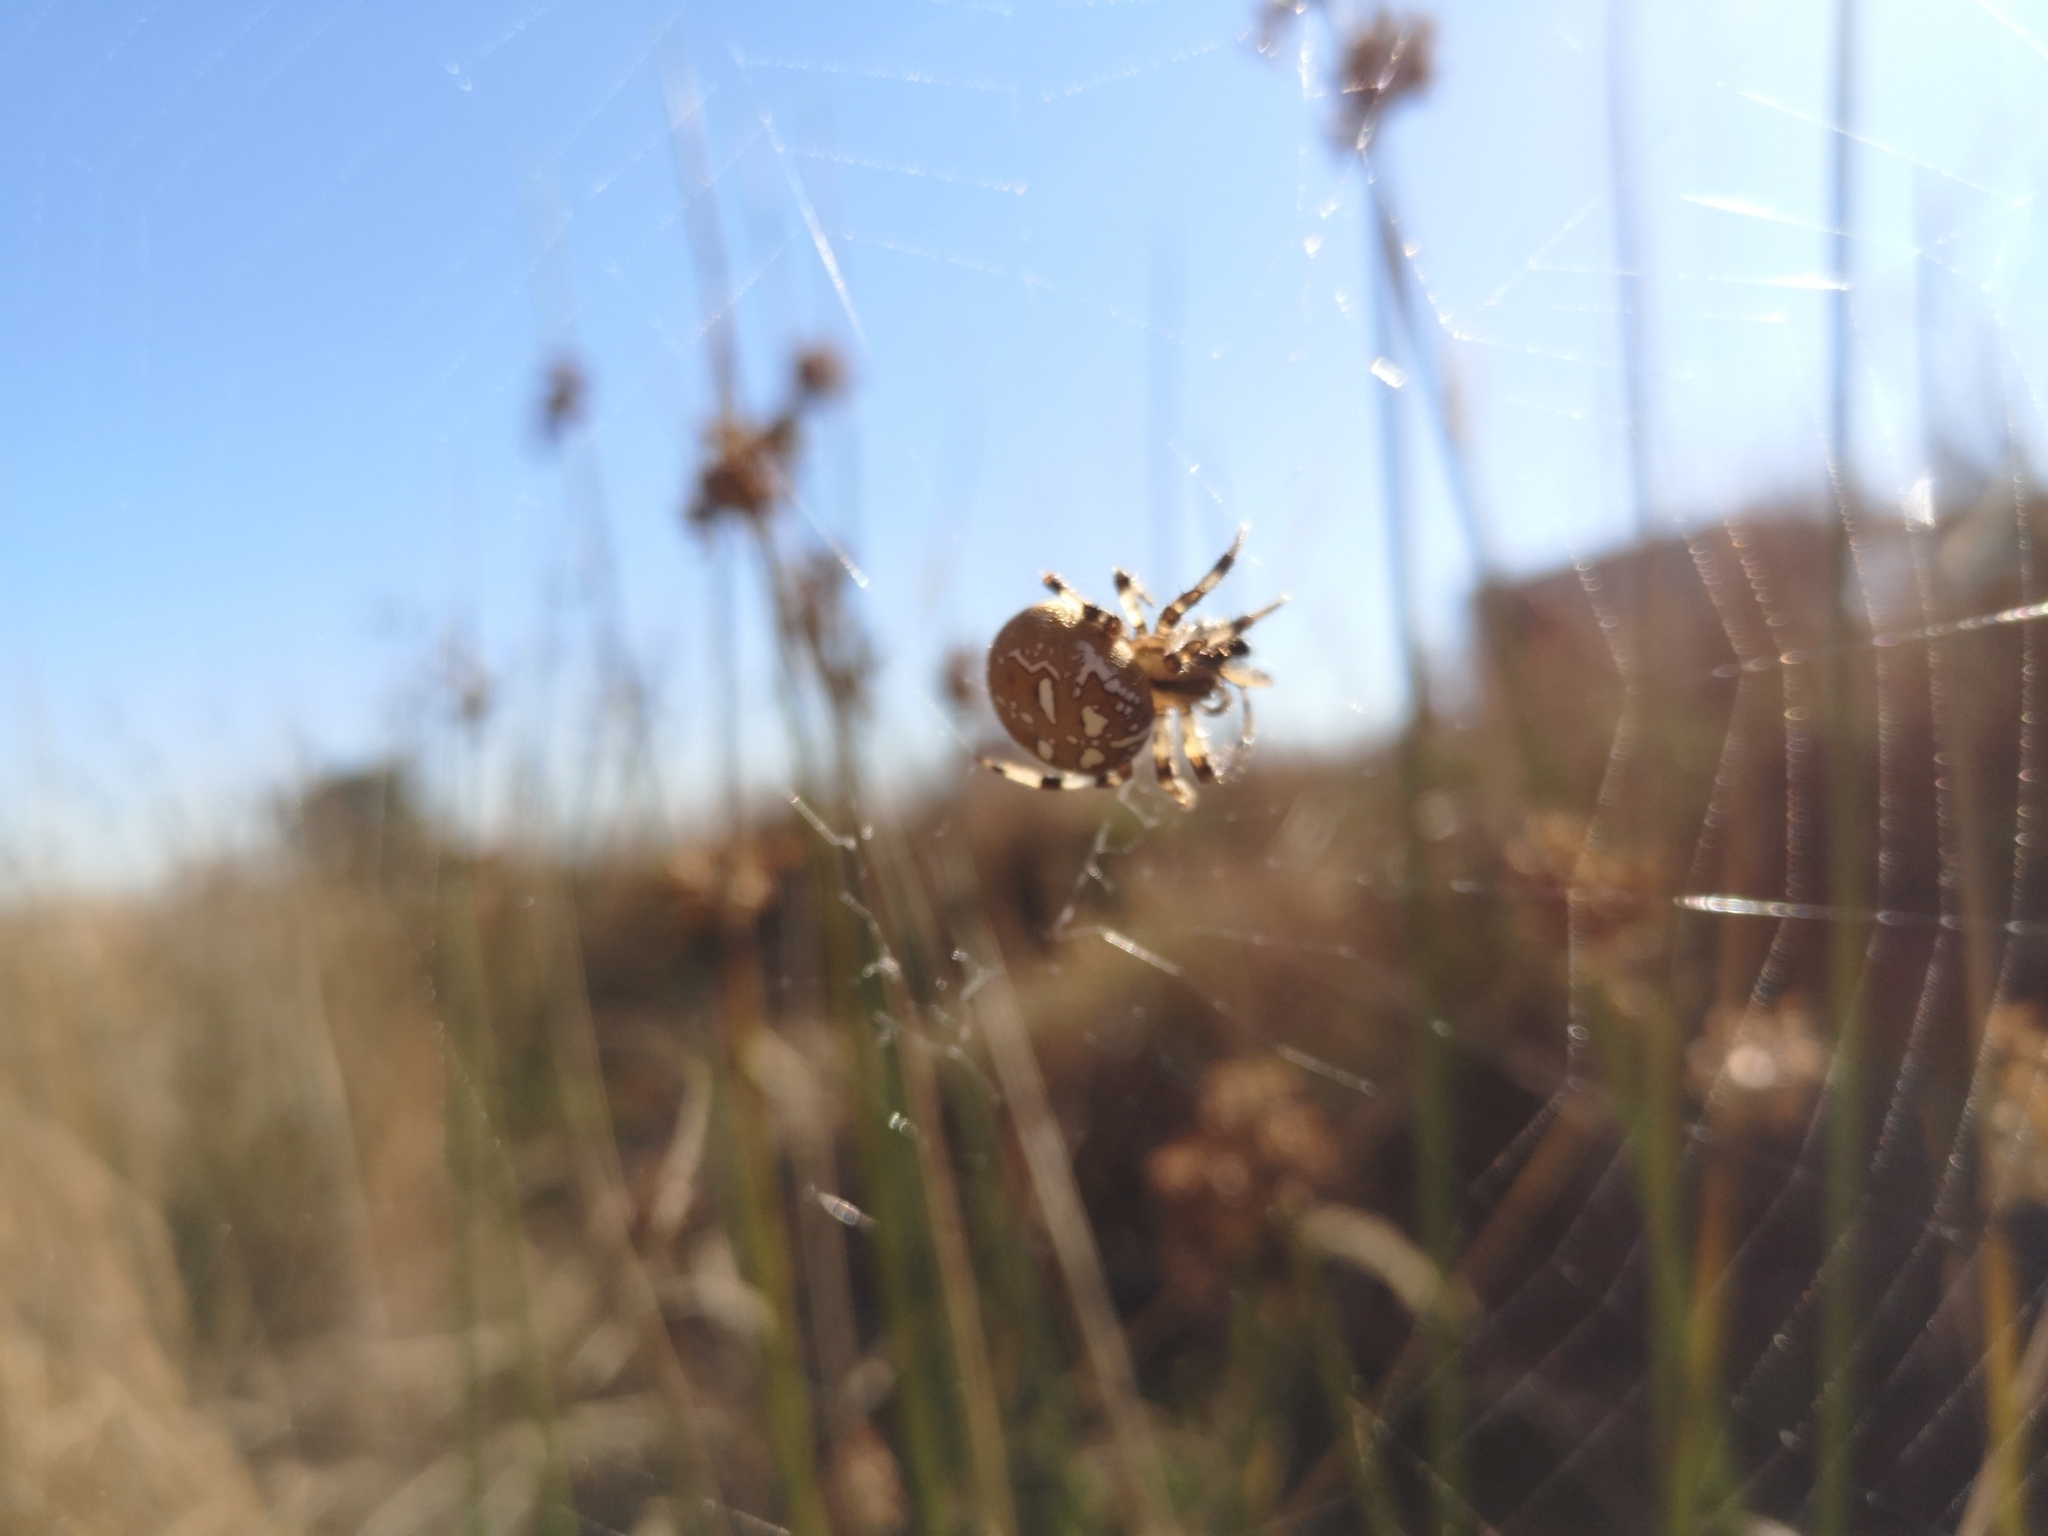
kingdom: Animalia
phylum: Arthropoda
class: Arachnida
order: Araneae
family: Araneidae
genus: Araneus
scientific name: Araneus quadratus
